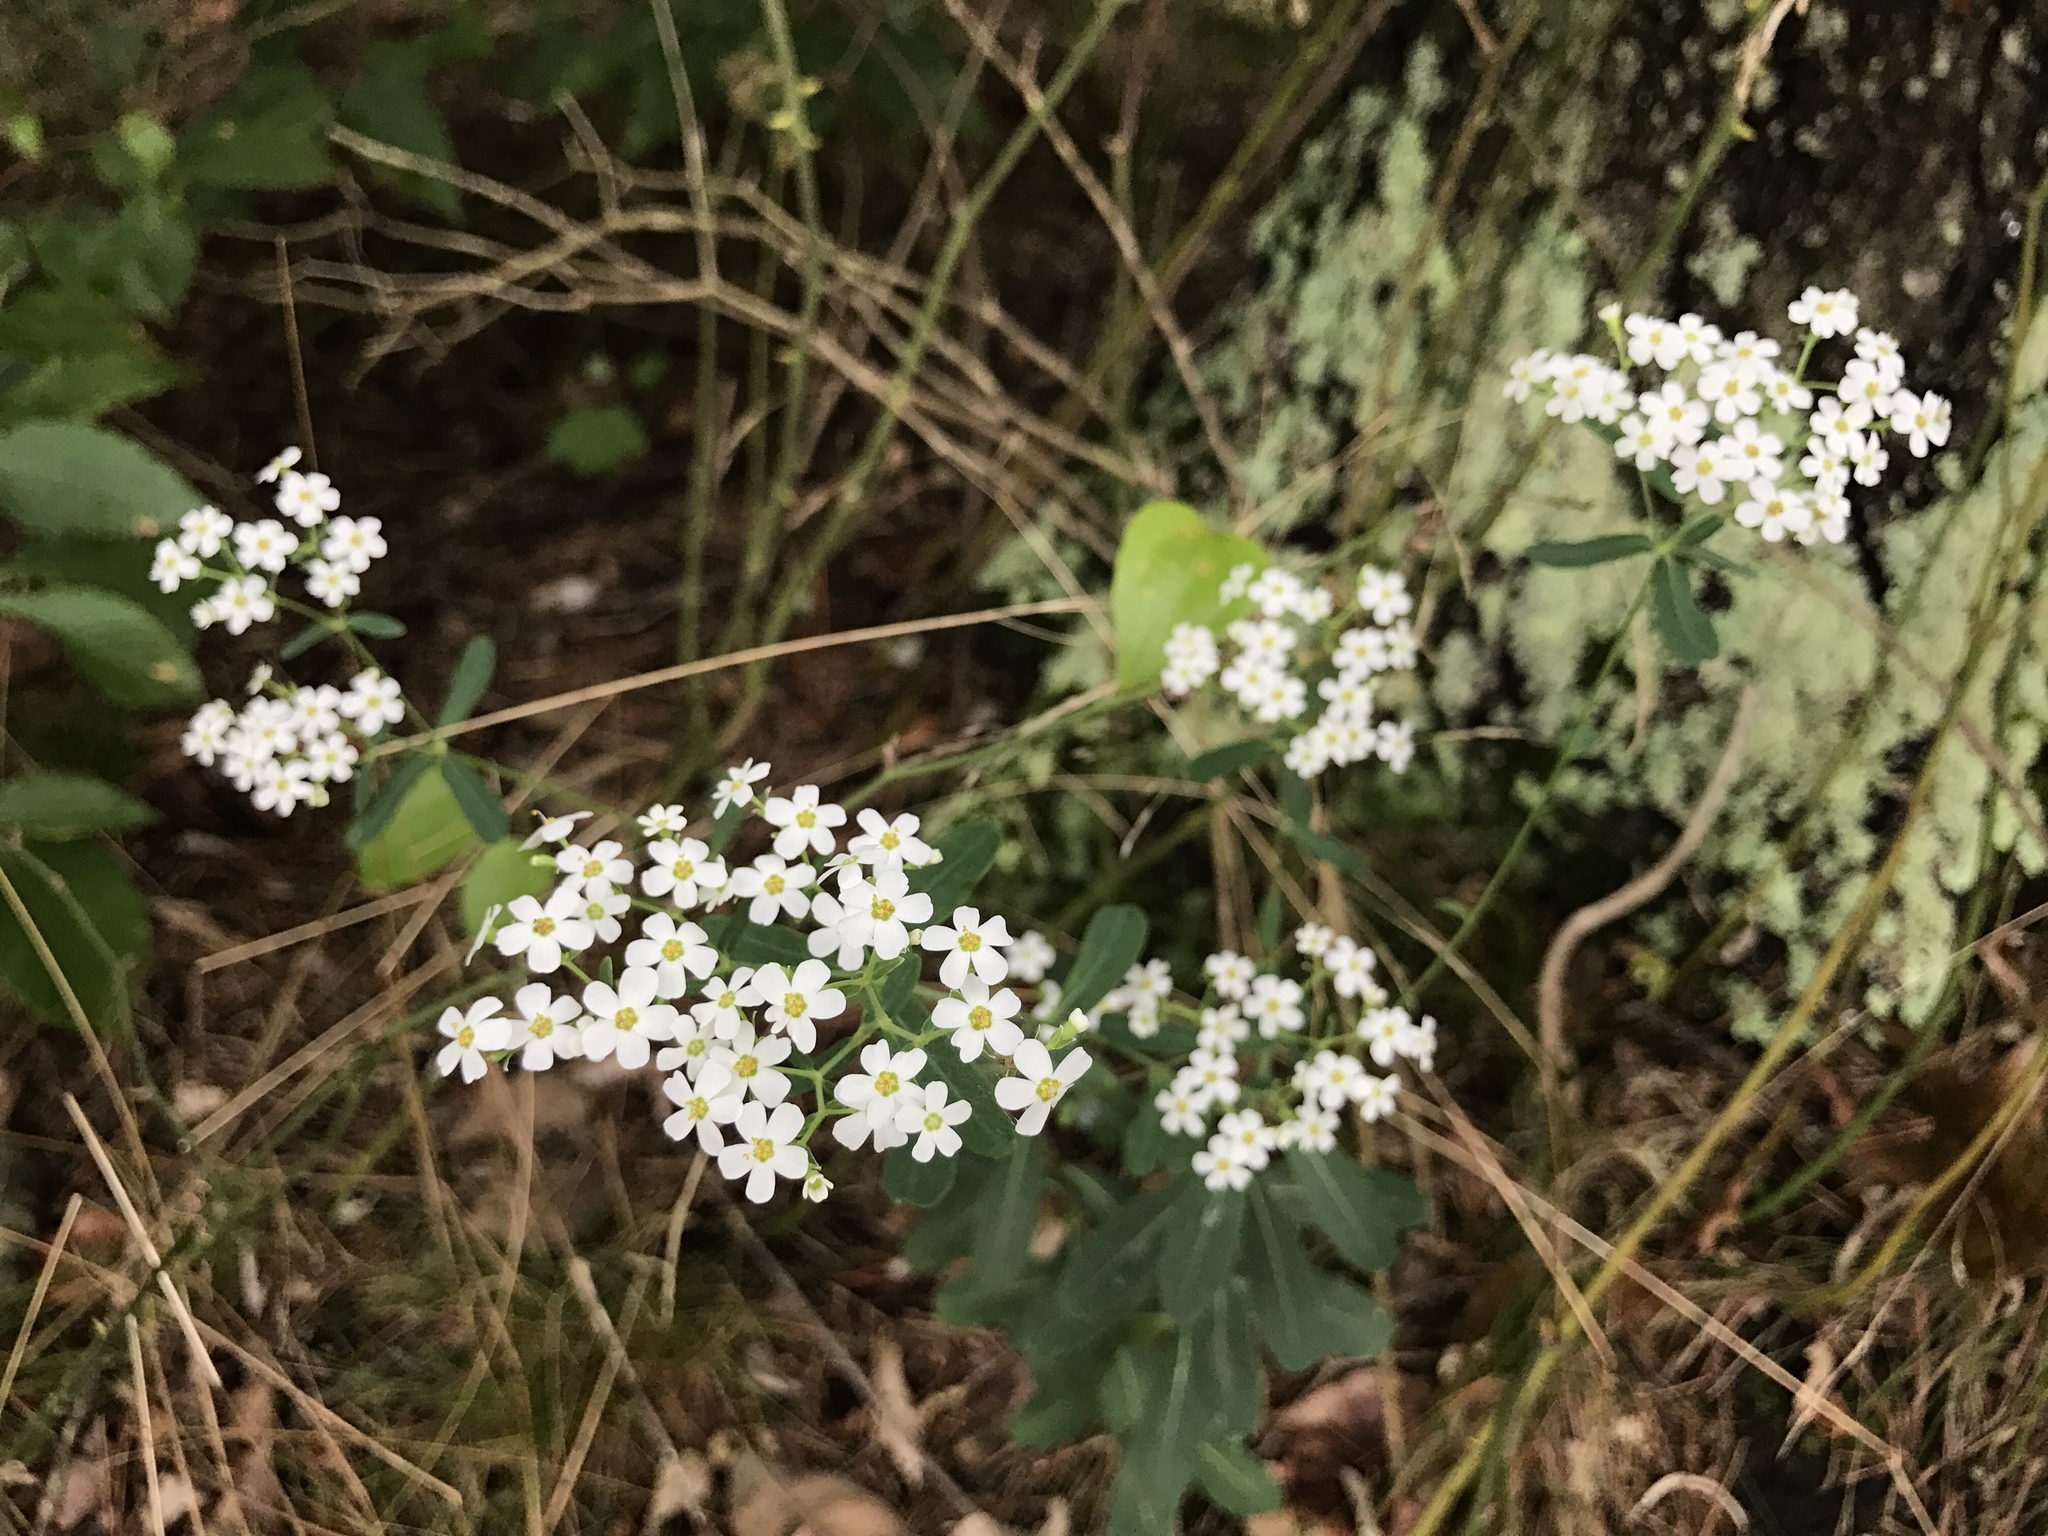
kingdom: Plantae
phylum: Tracheophyta
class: Magnoliopsida
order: Malpighiales
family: Euphorbiaceae
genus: Euphorbia
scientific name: Euphorbia corollata
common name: Flowering spurge
